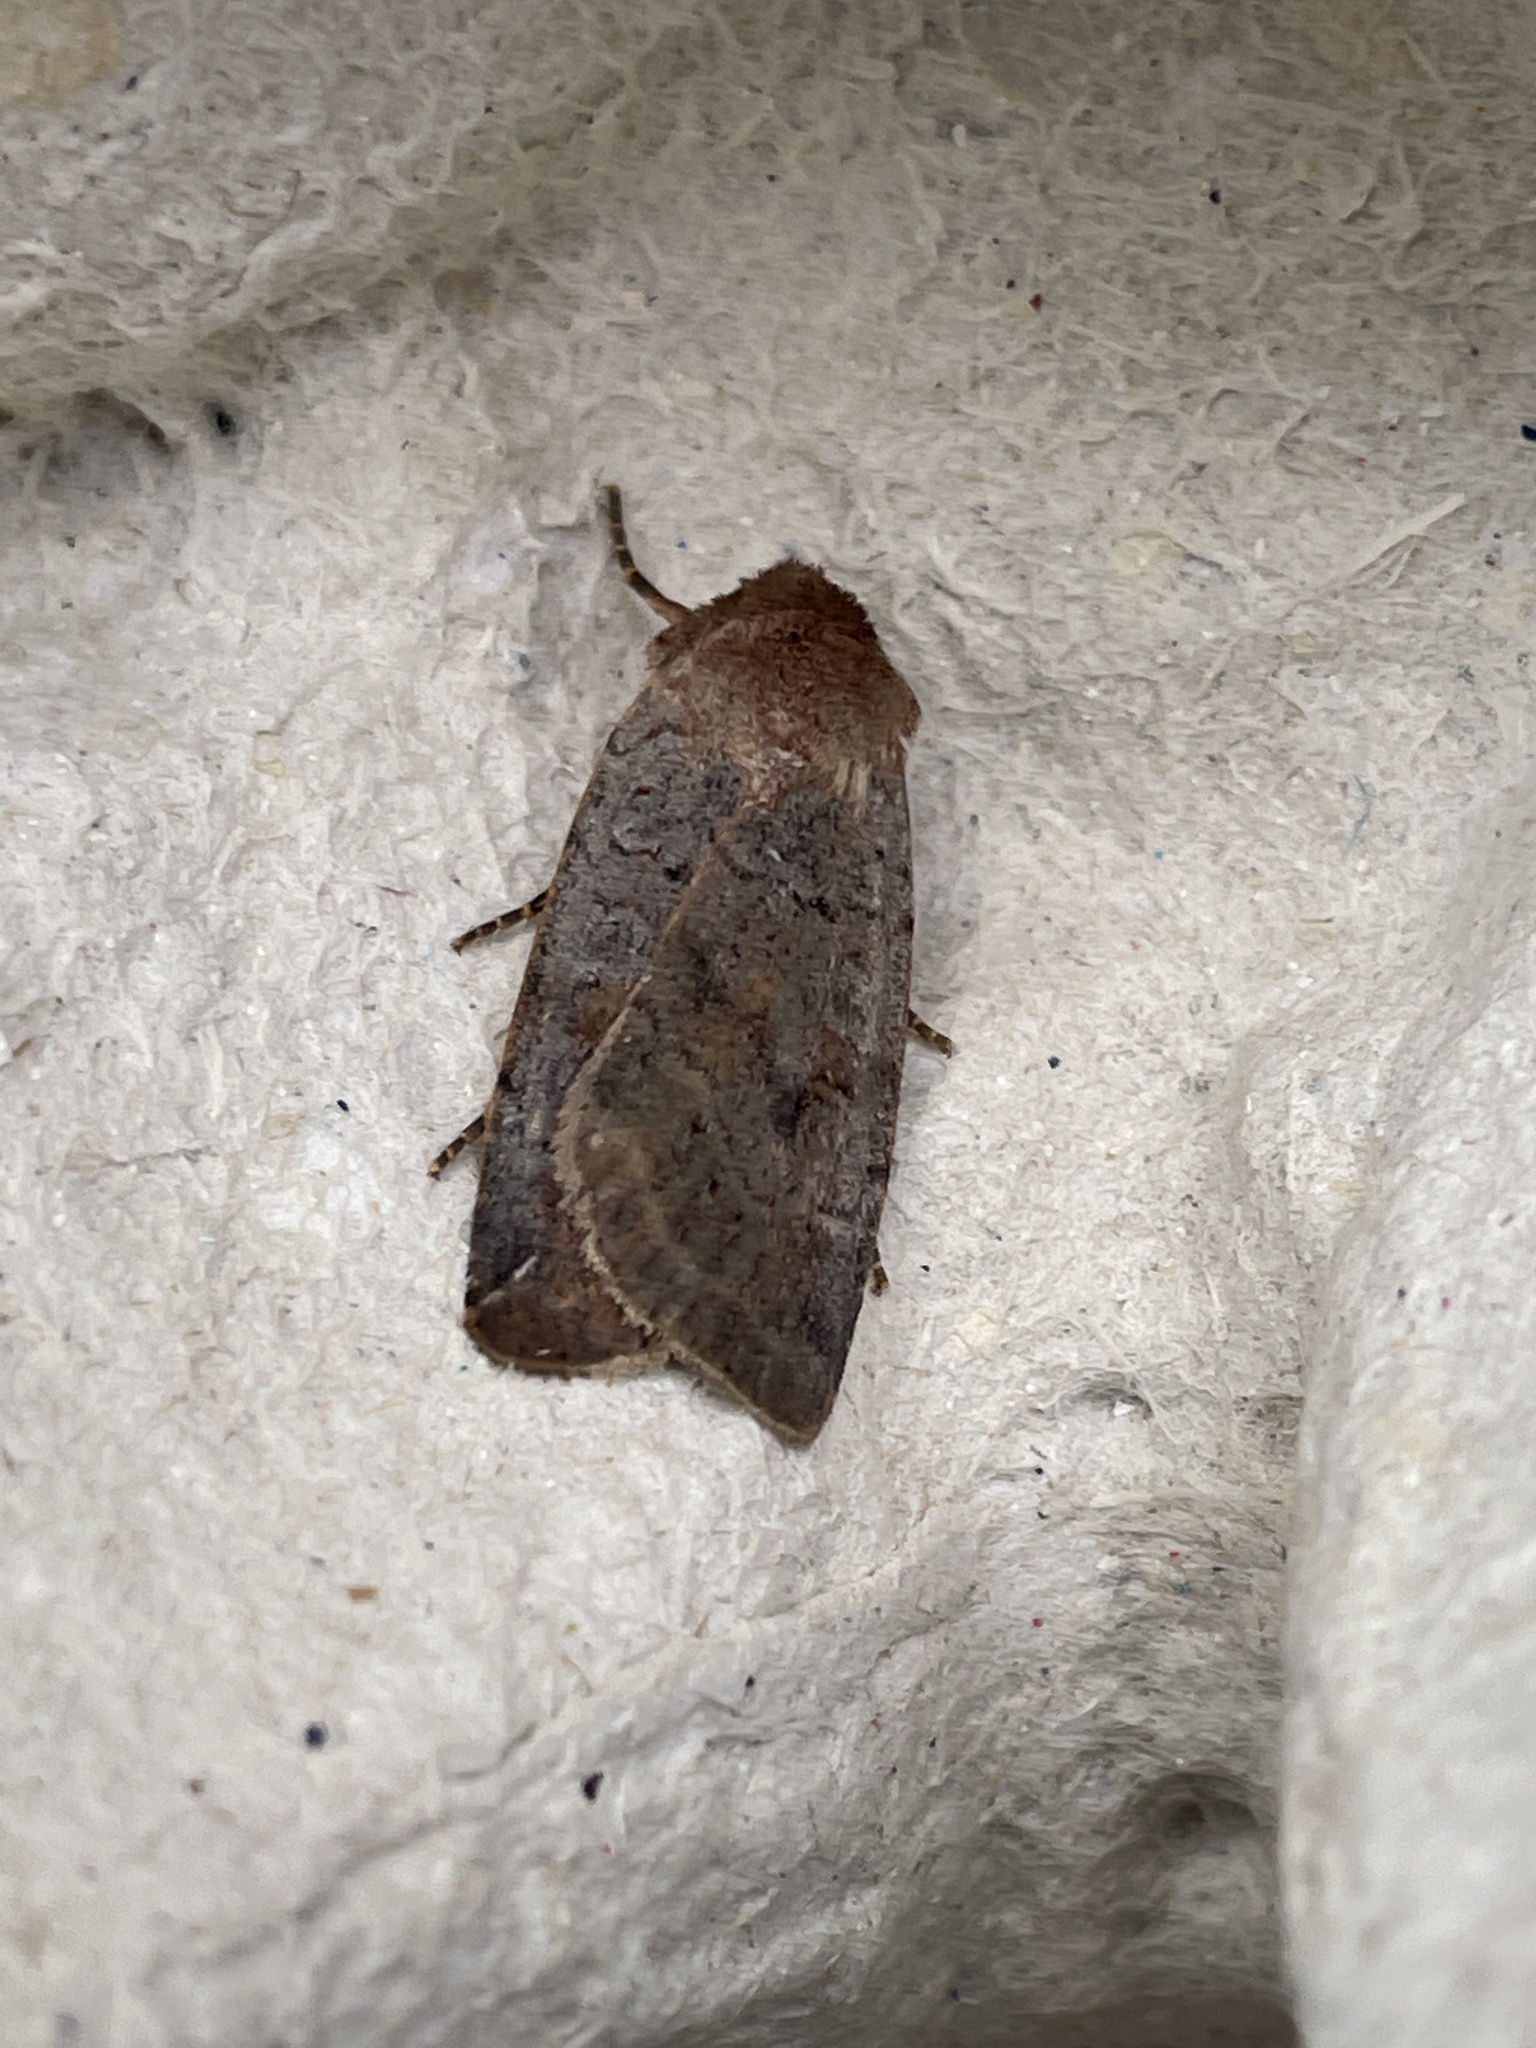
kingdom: Animalia
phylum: Arthropoda
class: Insecta
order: Lepidoptera
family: Noctuidae
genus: Protolampra
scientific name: Protolampra sobrina
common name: Cousin german
